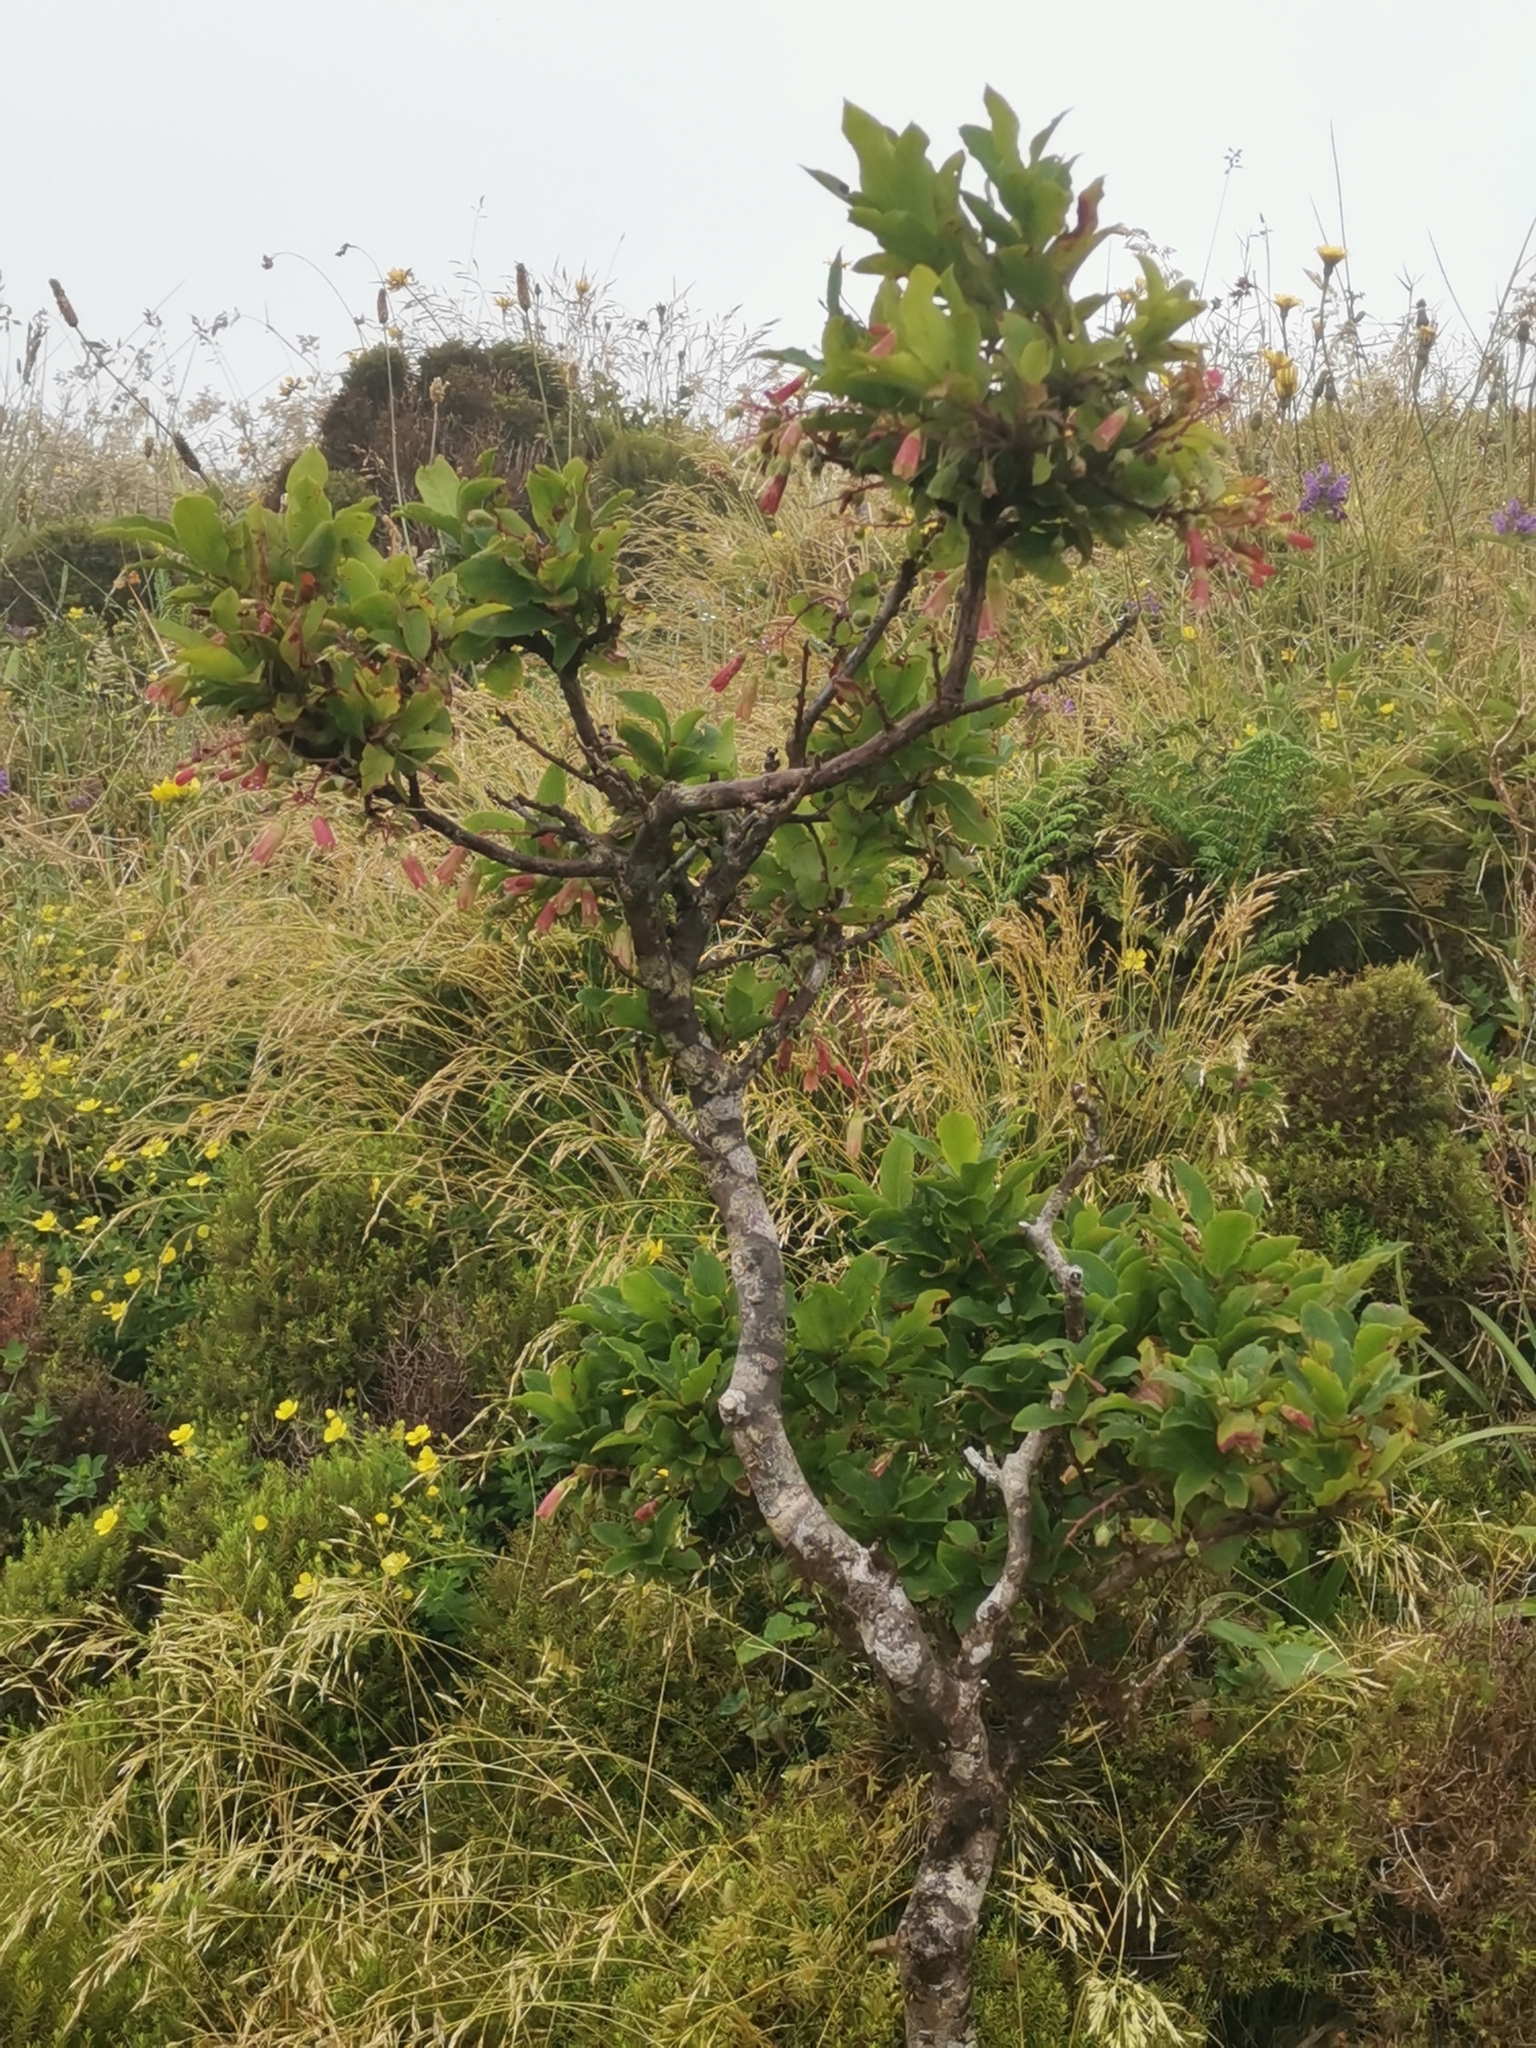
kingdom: Plantae
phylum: Tracheophyta
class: Magnoliopsida
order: Ericales
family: Ericaceae
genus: Vaccinium
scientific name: Vaccinium cylindraceum
